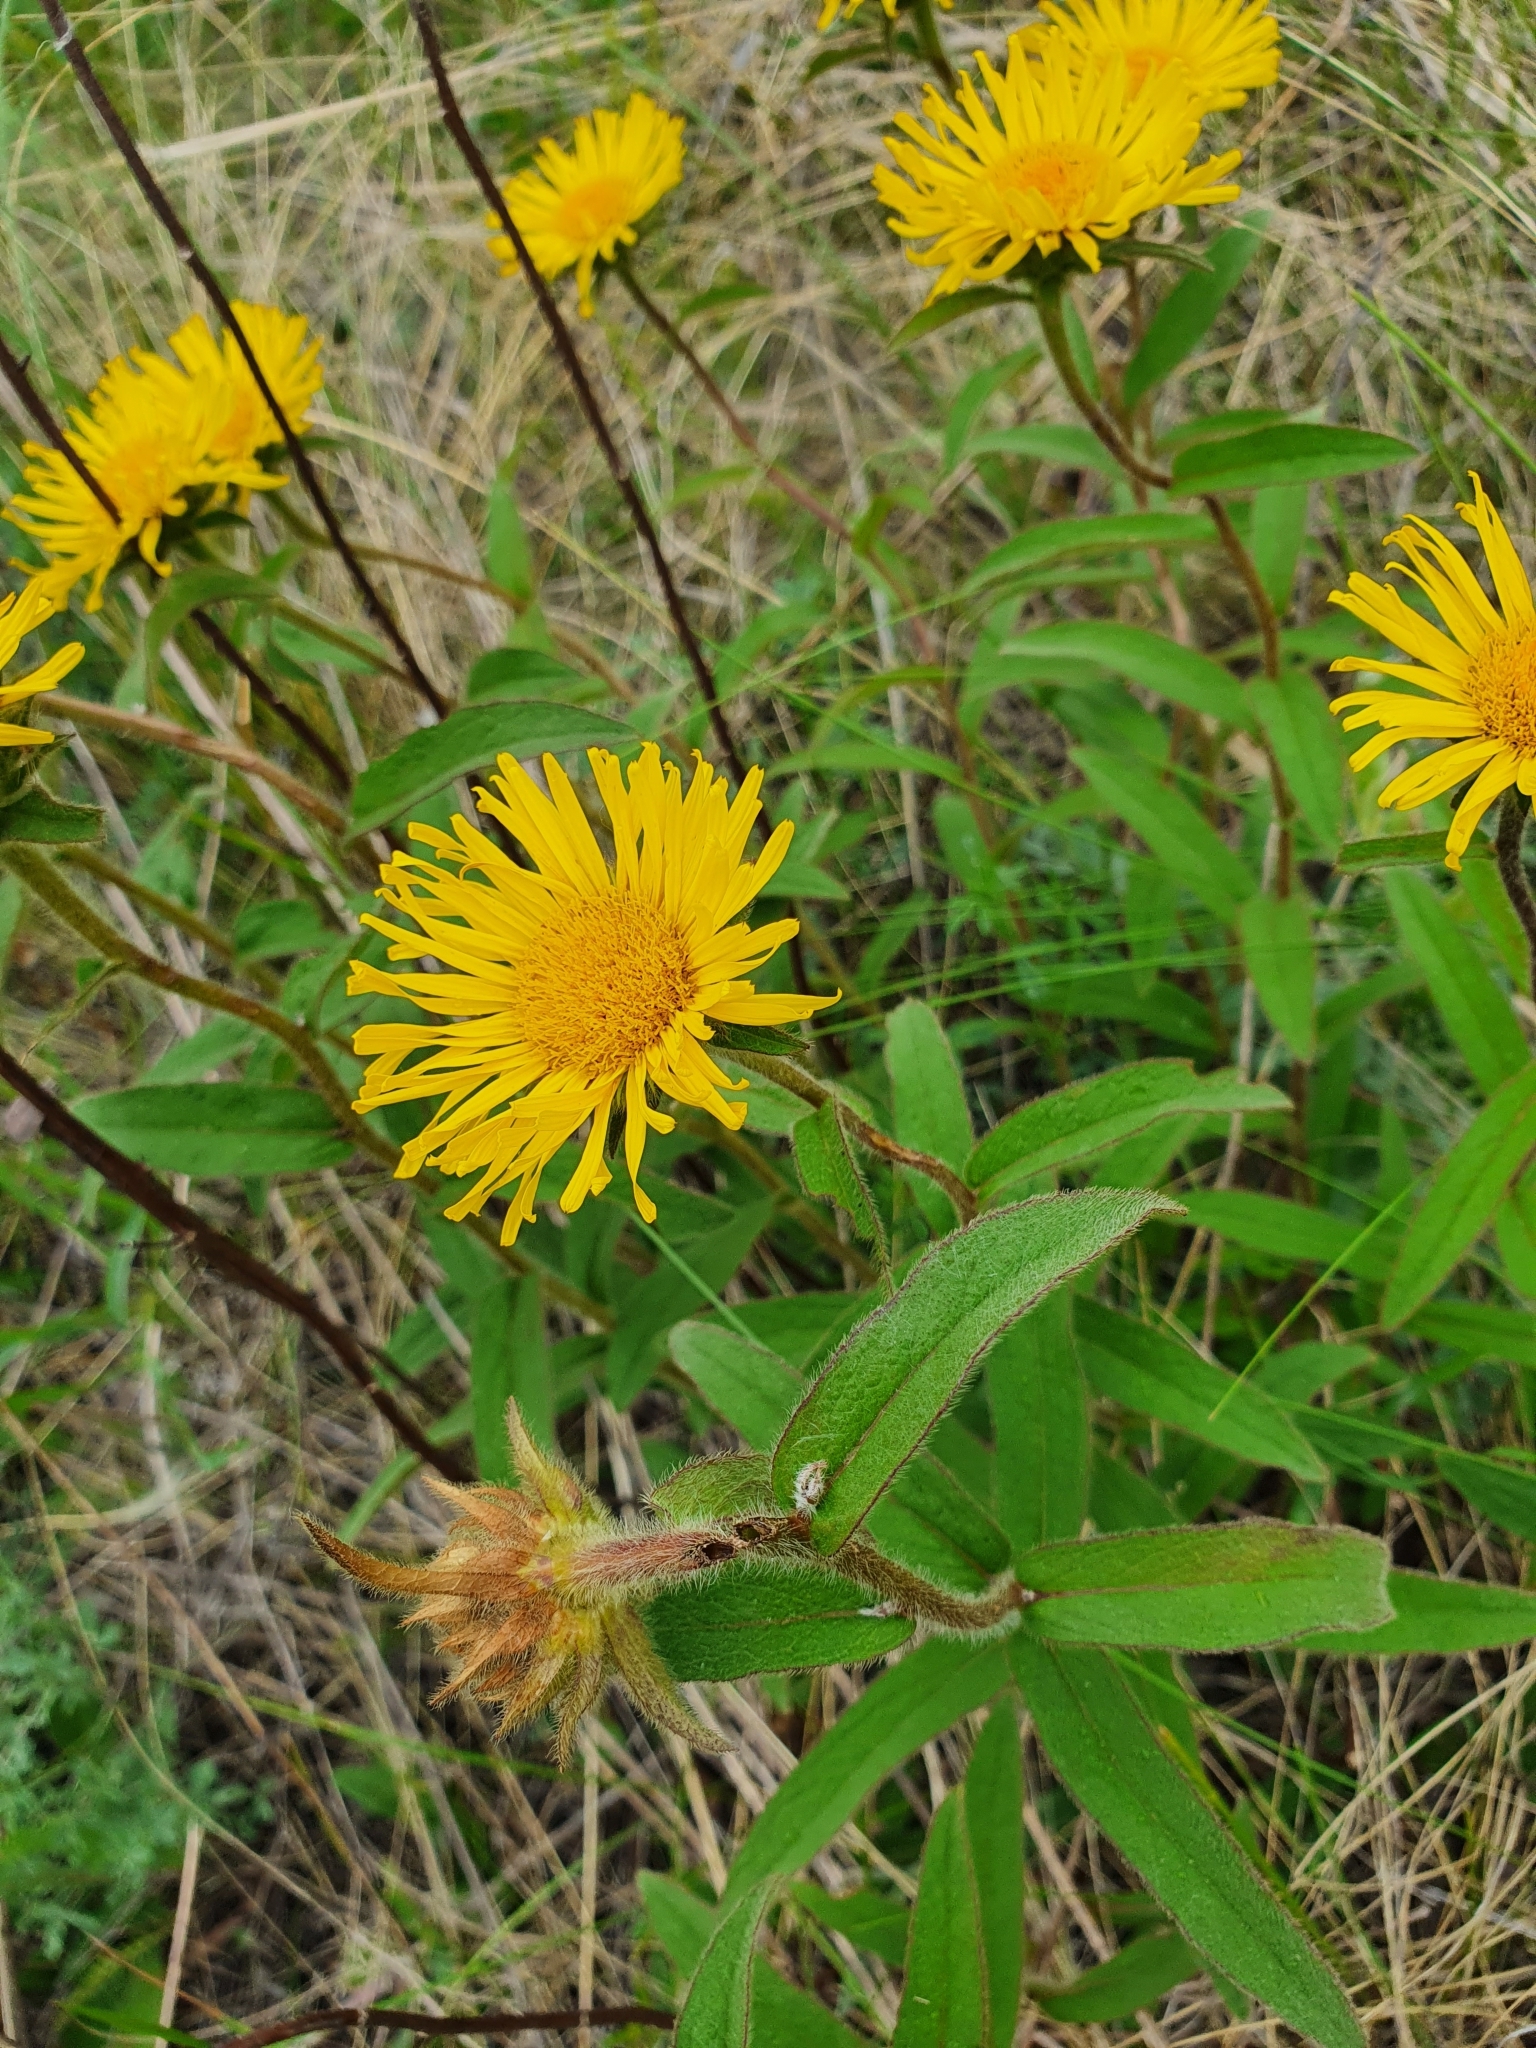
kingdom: Plantae
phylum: Tracheophyta
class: Magnoliopsida
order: Asterales
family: Asteraceae
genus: Pentanema
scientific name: Pentanema hirtum
